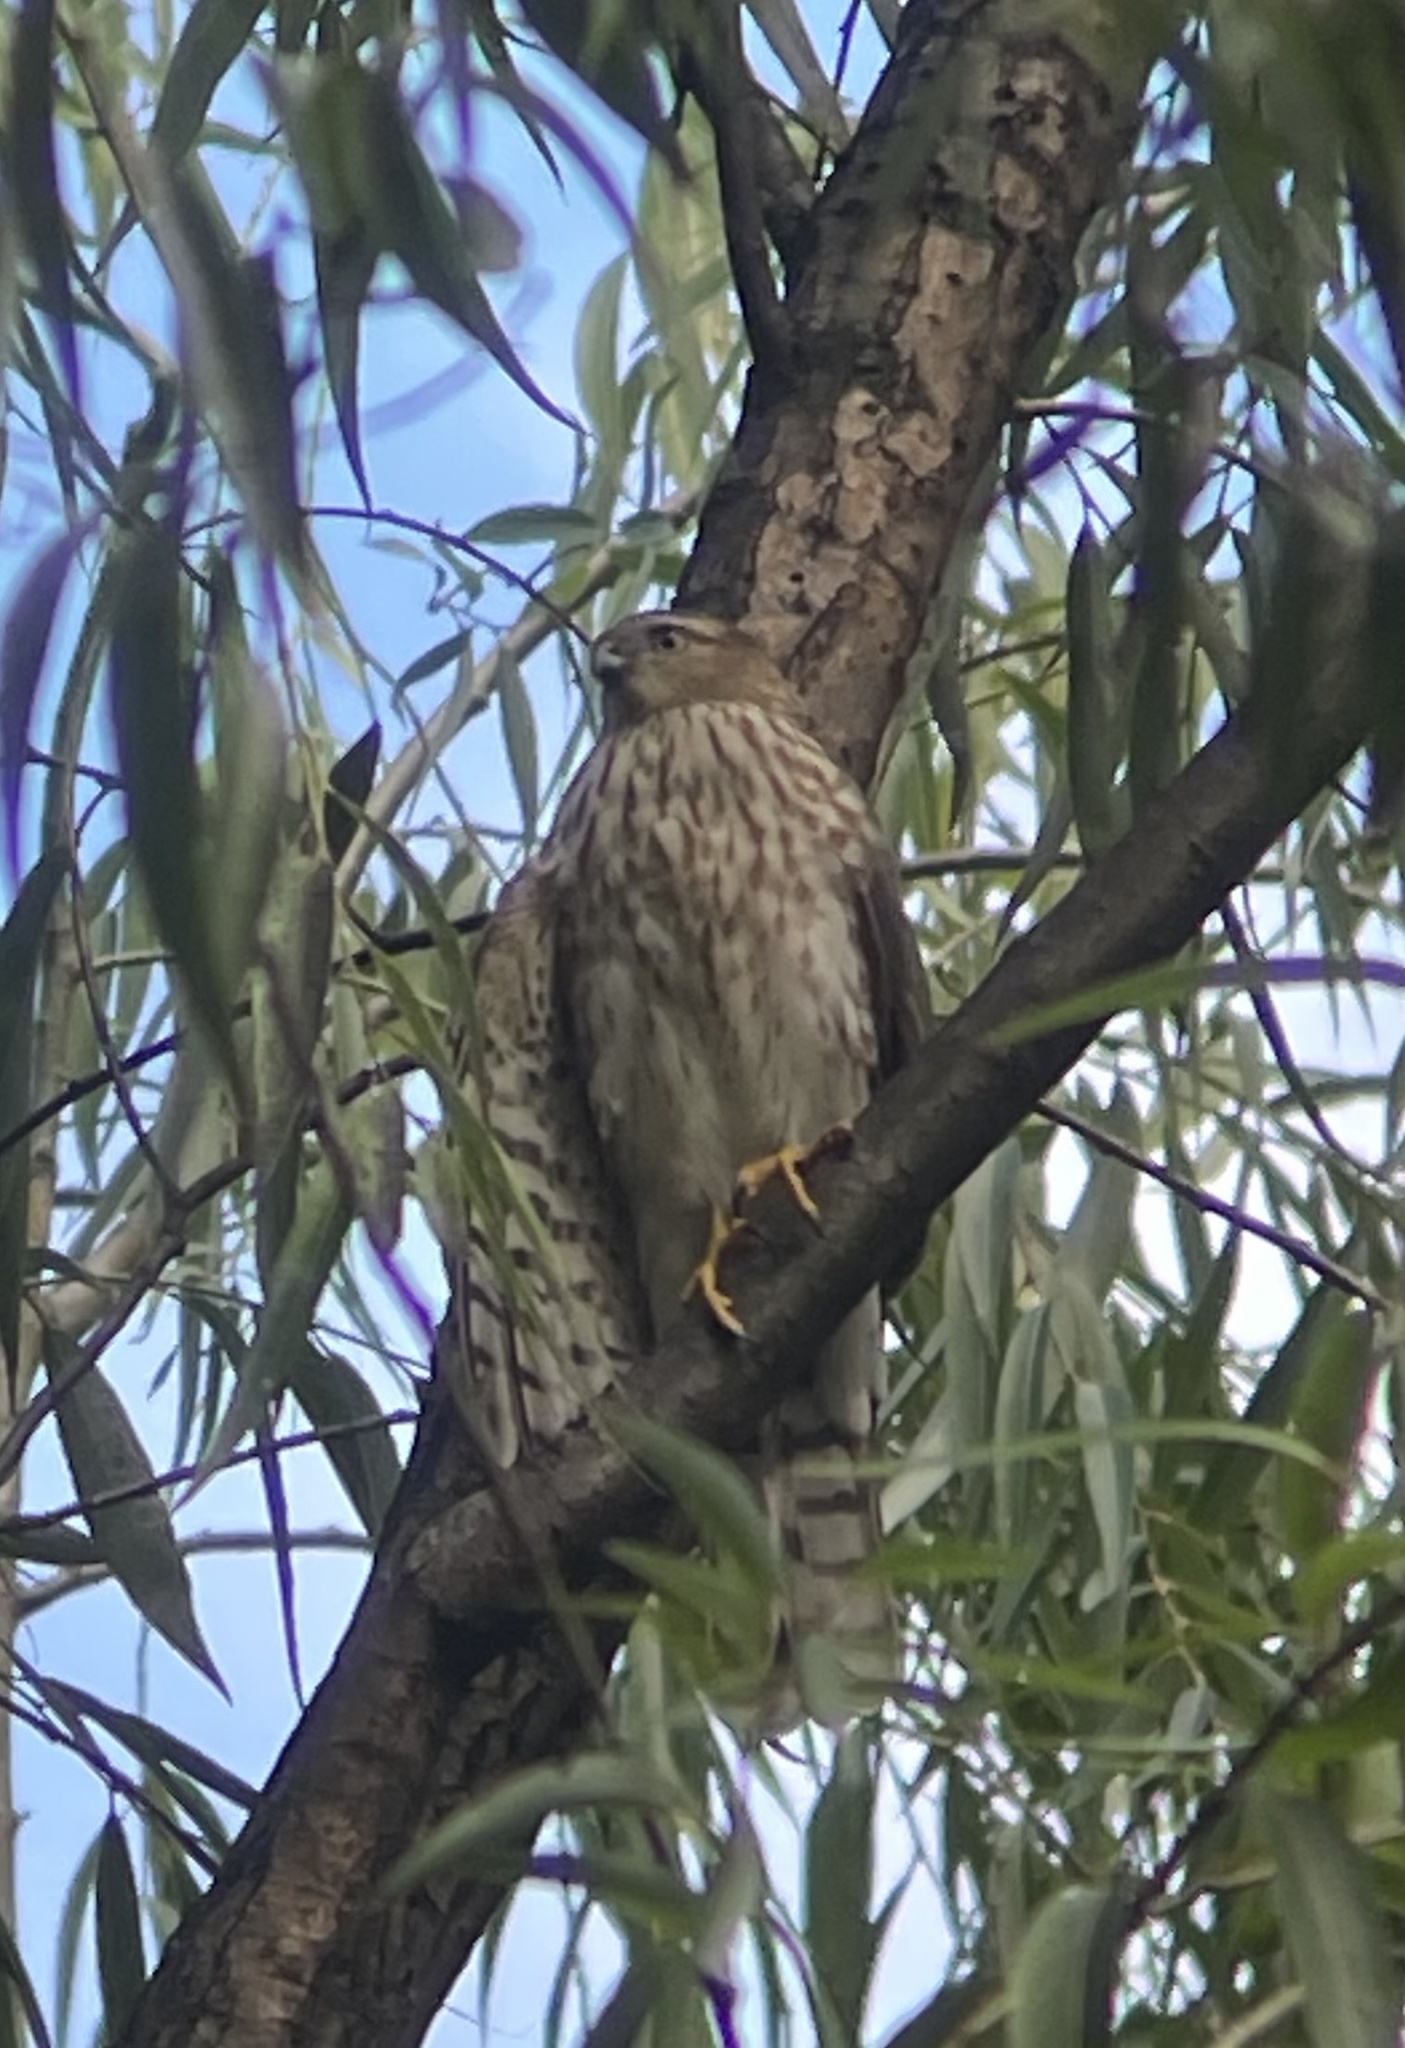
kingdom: Animalia
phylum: Chordata
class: Aves
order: Accipitriformes
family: Accipitridae
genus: Accipiter
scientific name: Accipiter cooperii
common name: Cooper's hawk
